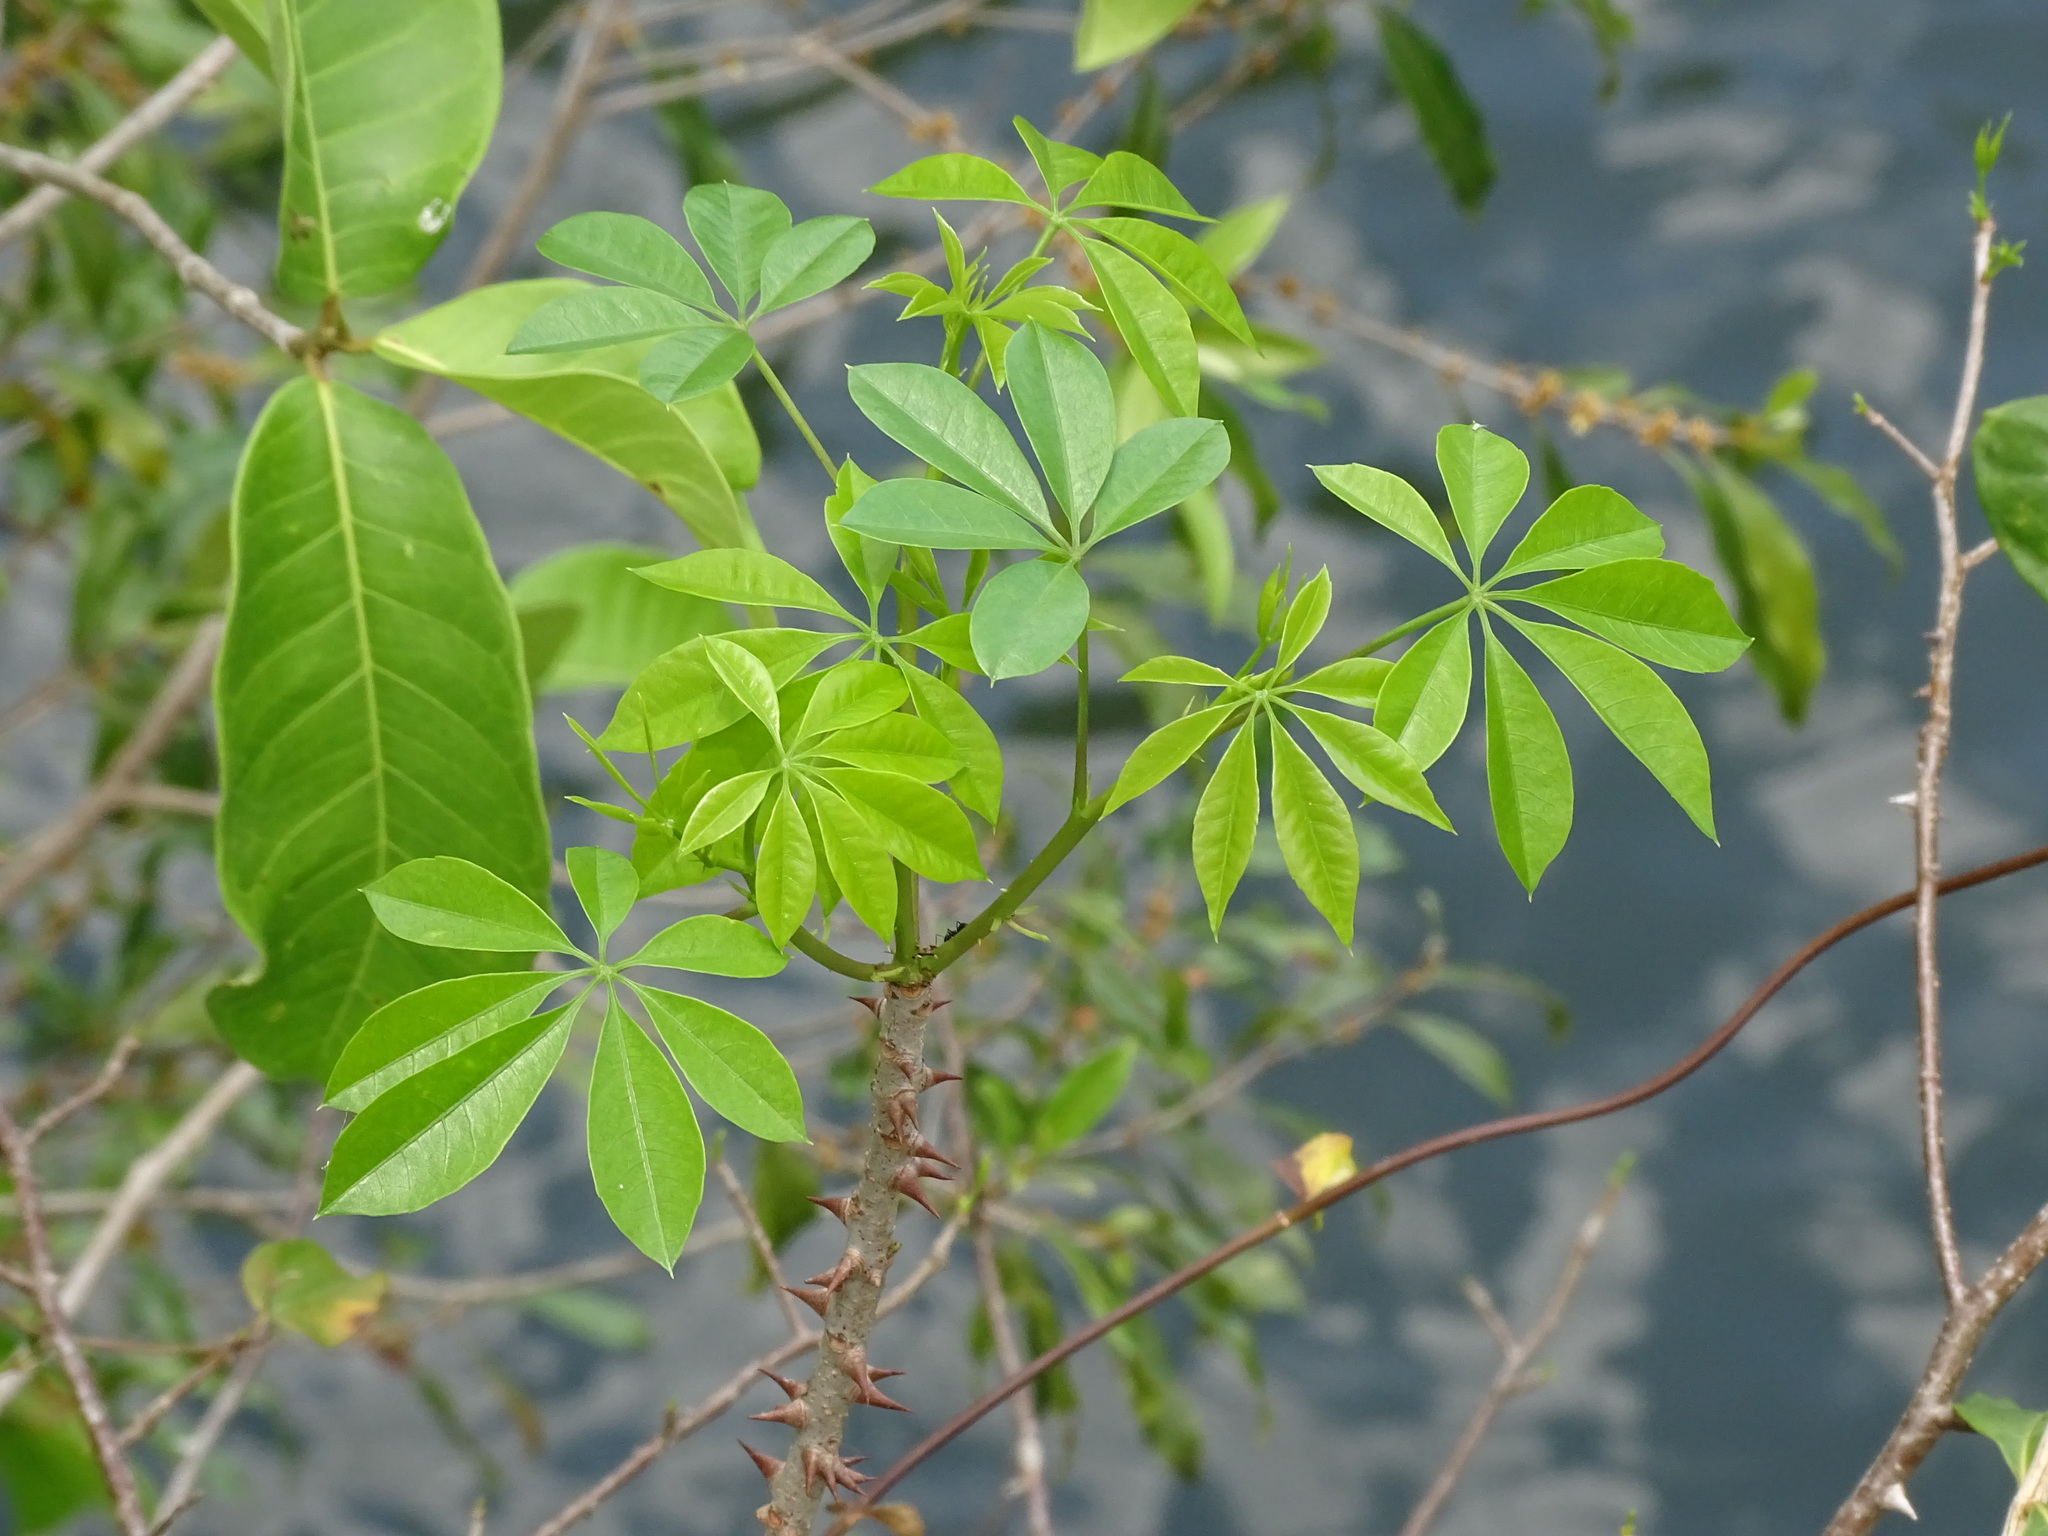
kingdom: Plantae
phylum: Tracheophyta
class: Magnoliopsida
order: Malvales
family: Malvaceae
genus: Ceiba
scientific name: Ceiba aesculifolia
